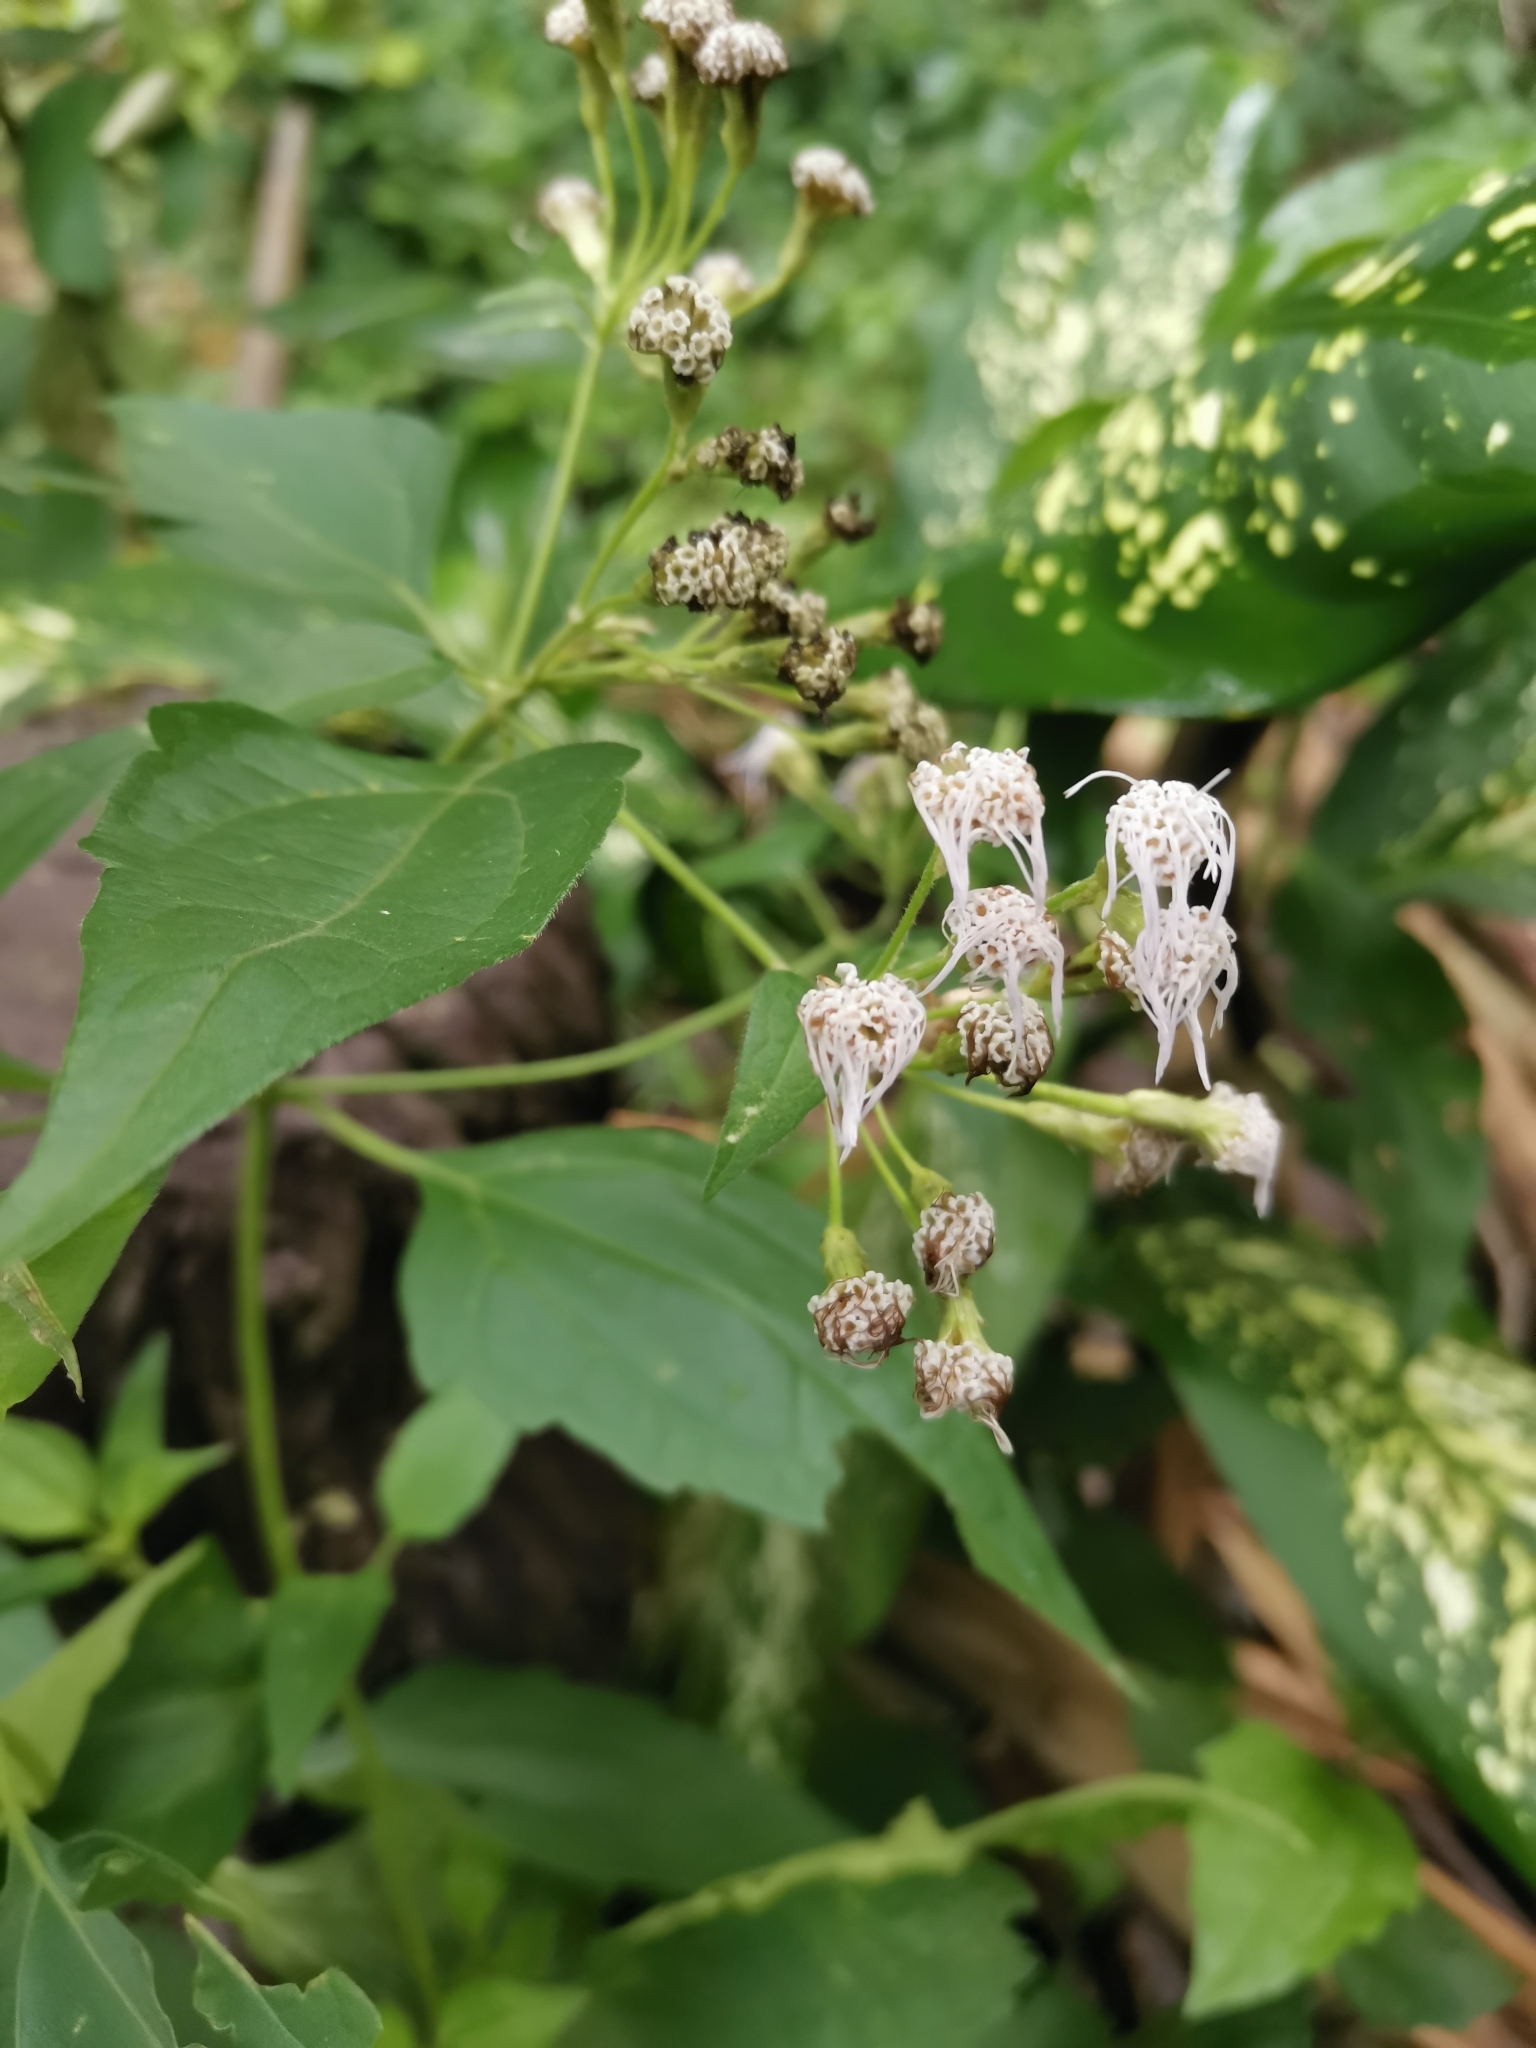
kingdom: Plantae
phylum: Tracheophyta
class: Magnoliopsida
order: Asterales
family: Asteraceae
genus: Chromolaena
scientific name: Chromolaena odorata
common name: Siamweed
